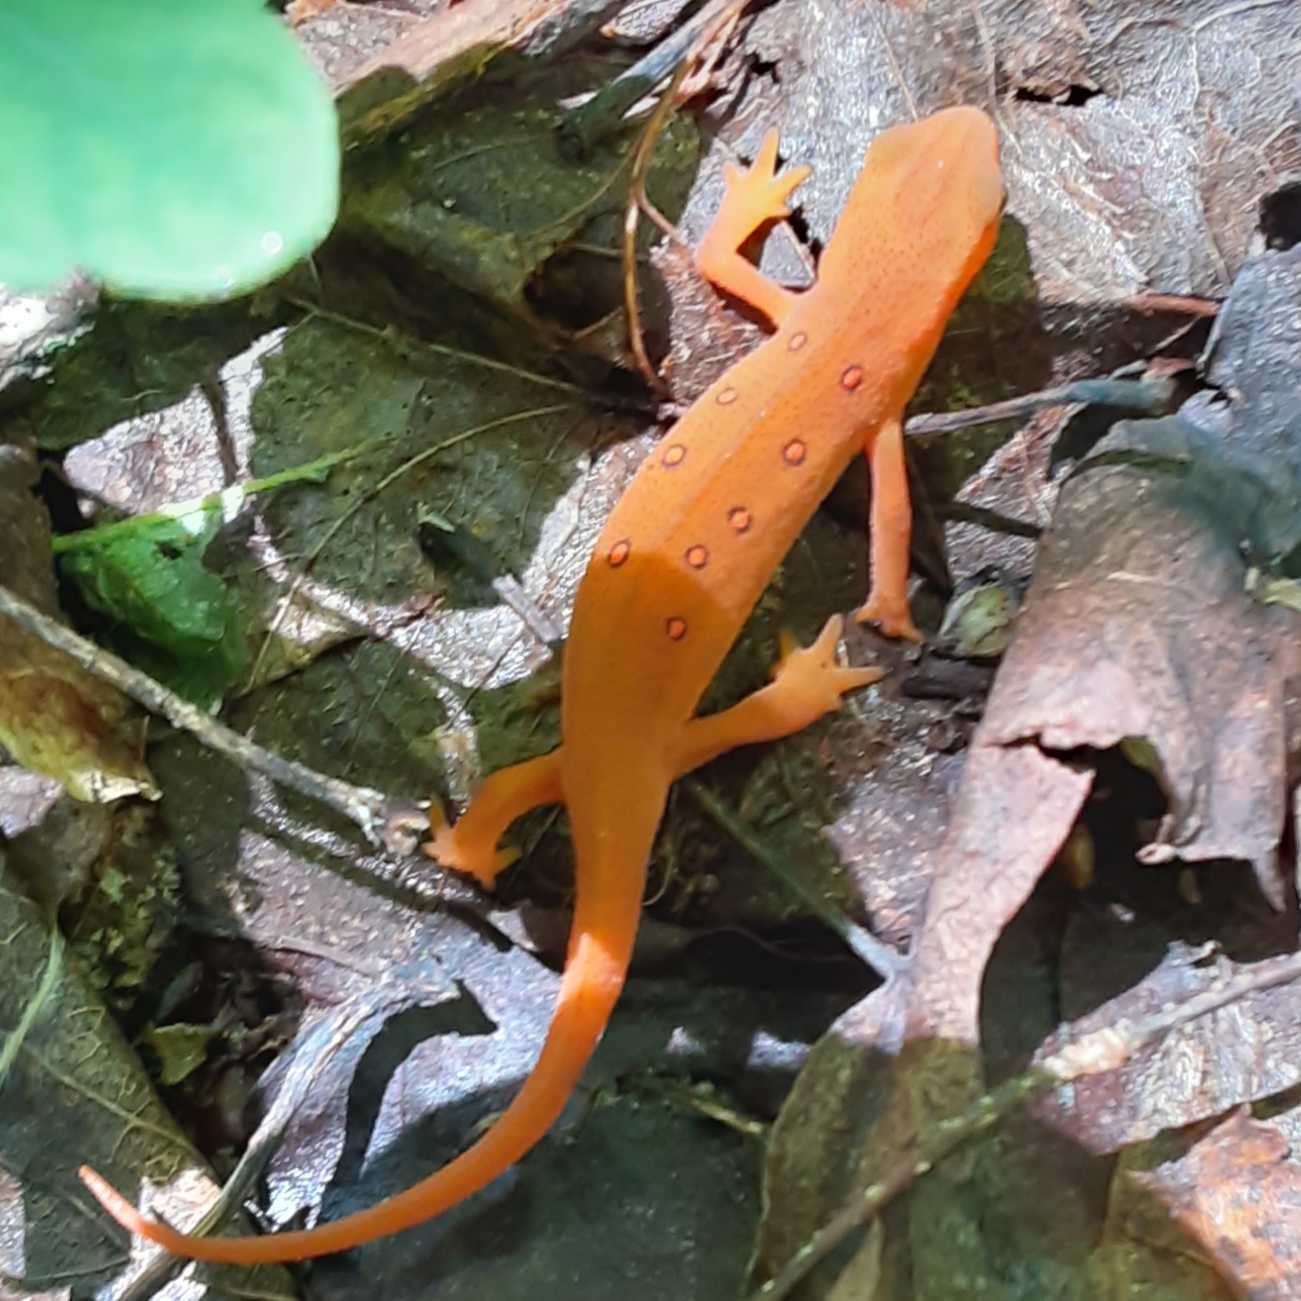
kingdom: Animalia
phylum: Chordata
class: Amphibia
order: Caudata
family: Salamandridae
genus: Notophthalmus
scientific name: Notophthalmus viridescens
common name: Eastern newt
